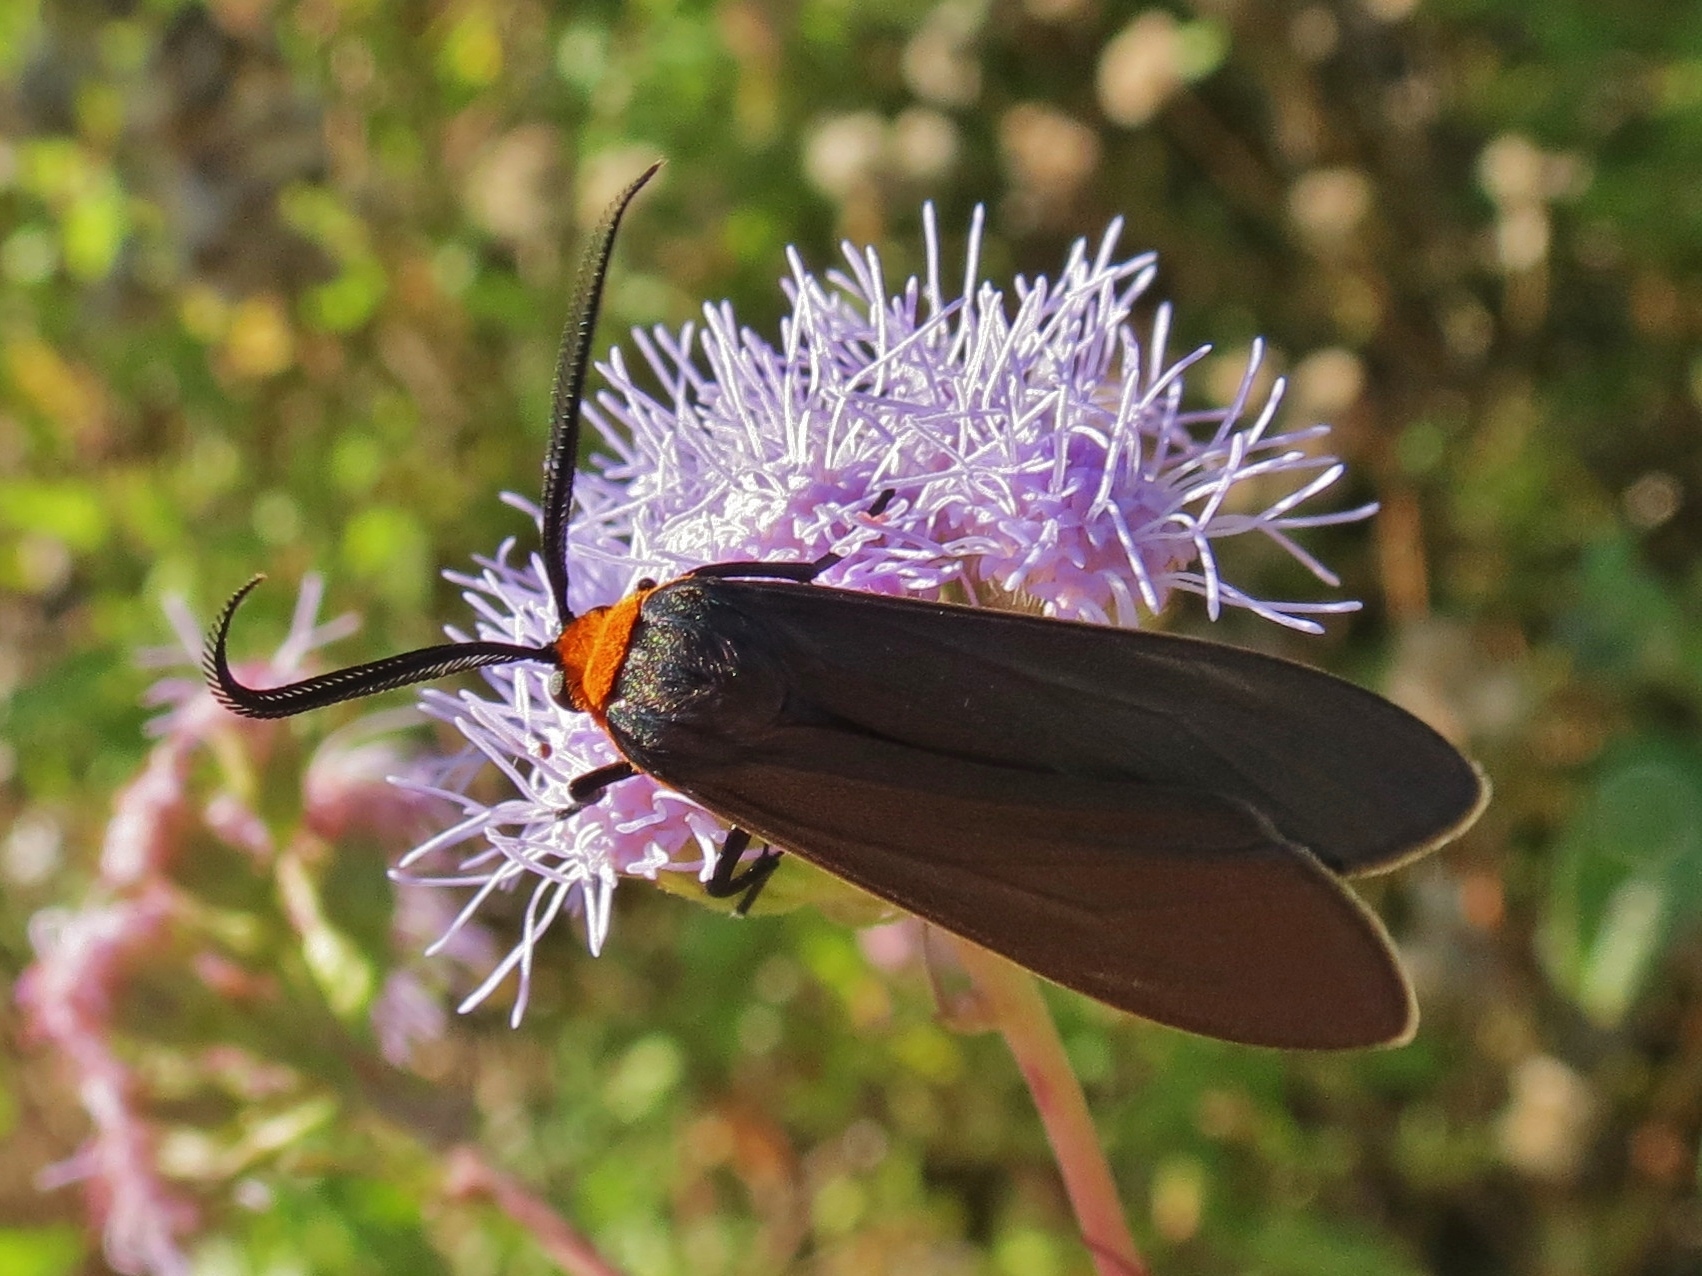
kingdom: Animalia
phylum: Arthropoda
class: Insecta
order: Lepidoptera
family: Erebidae
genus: Cisseps
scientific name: Cisseps fulvicollis
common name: Yellow-collared scape moth
